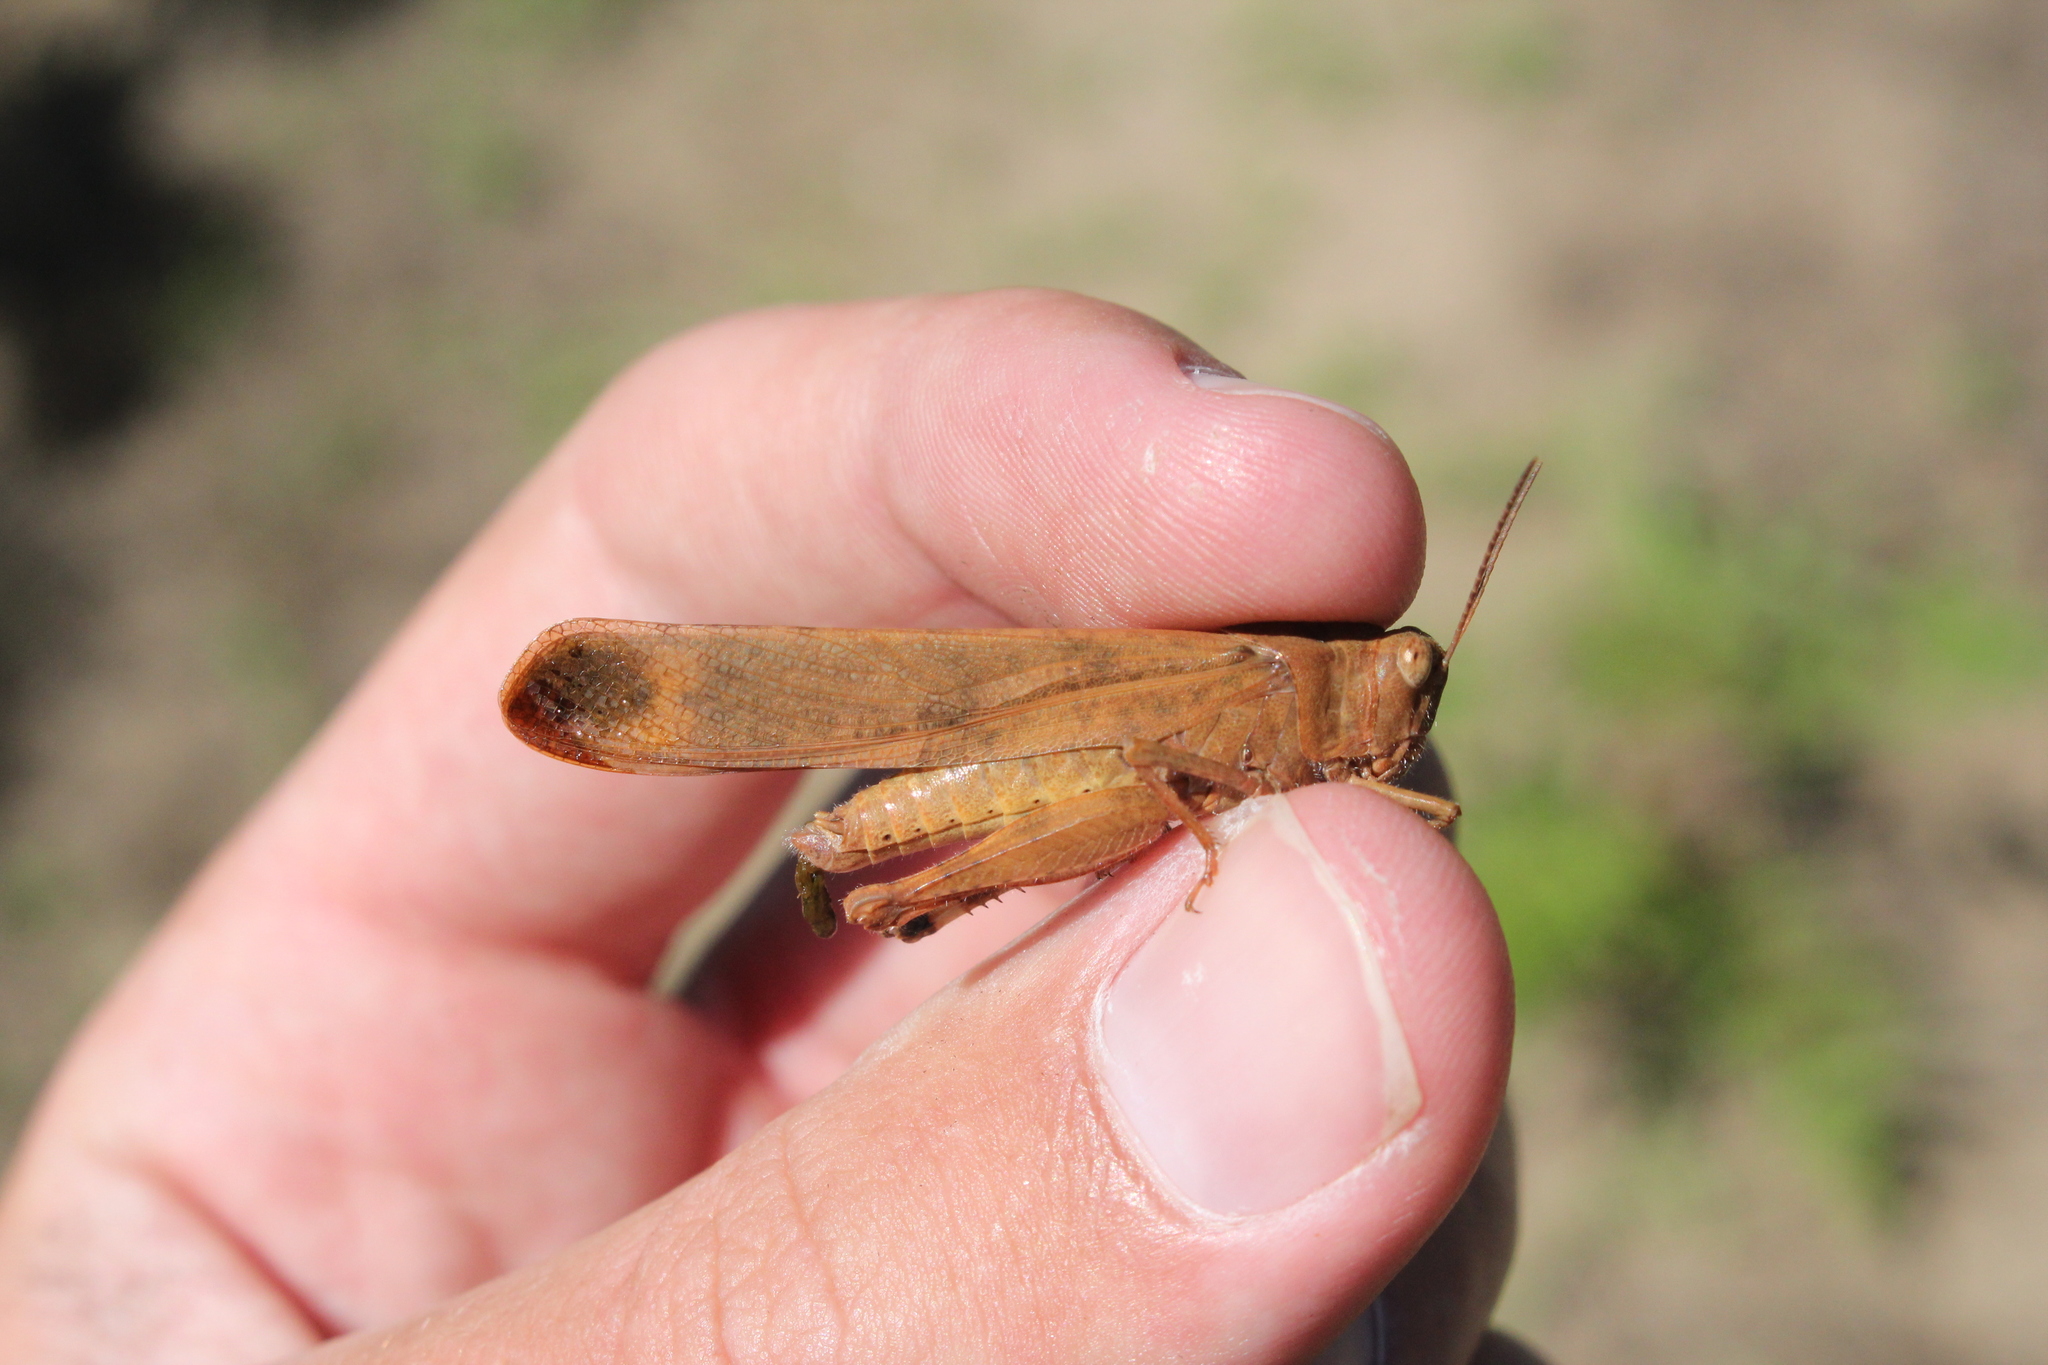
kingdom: Animalia
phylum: Arthropoda
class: Insecta
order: Orthoptera
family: Acrididae
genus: Dissosteira
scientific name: Dissosteira carolina
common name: Carolina grasshopper
